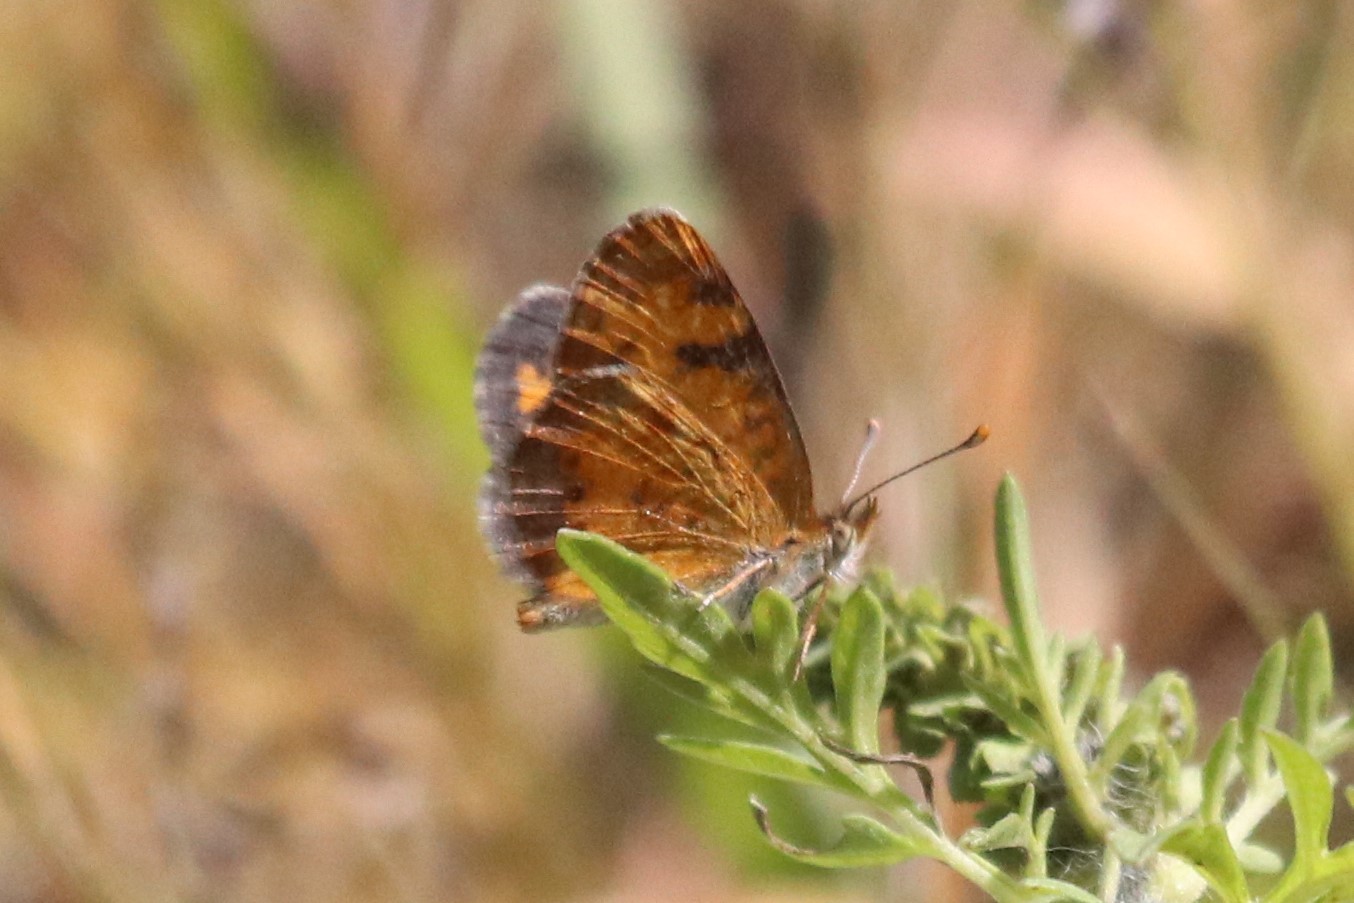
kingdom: Animalia
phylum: Arthropoda
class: Insecta
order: Lepidoptera
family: Nymphalidae
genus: Phyciodes
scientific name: Phyciodes tharos
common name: Pearl crescent
